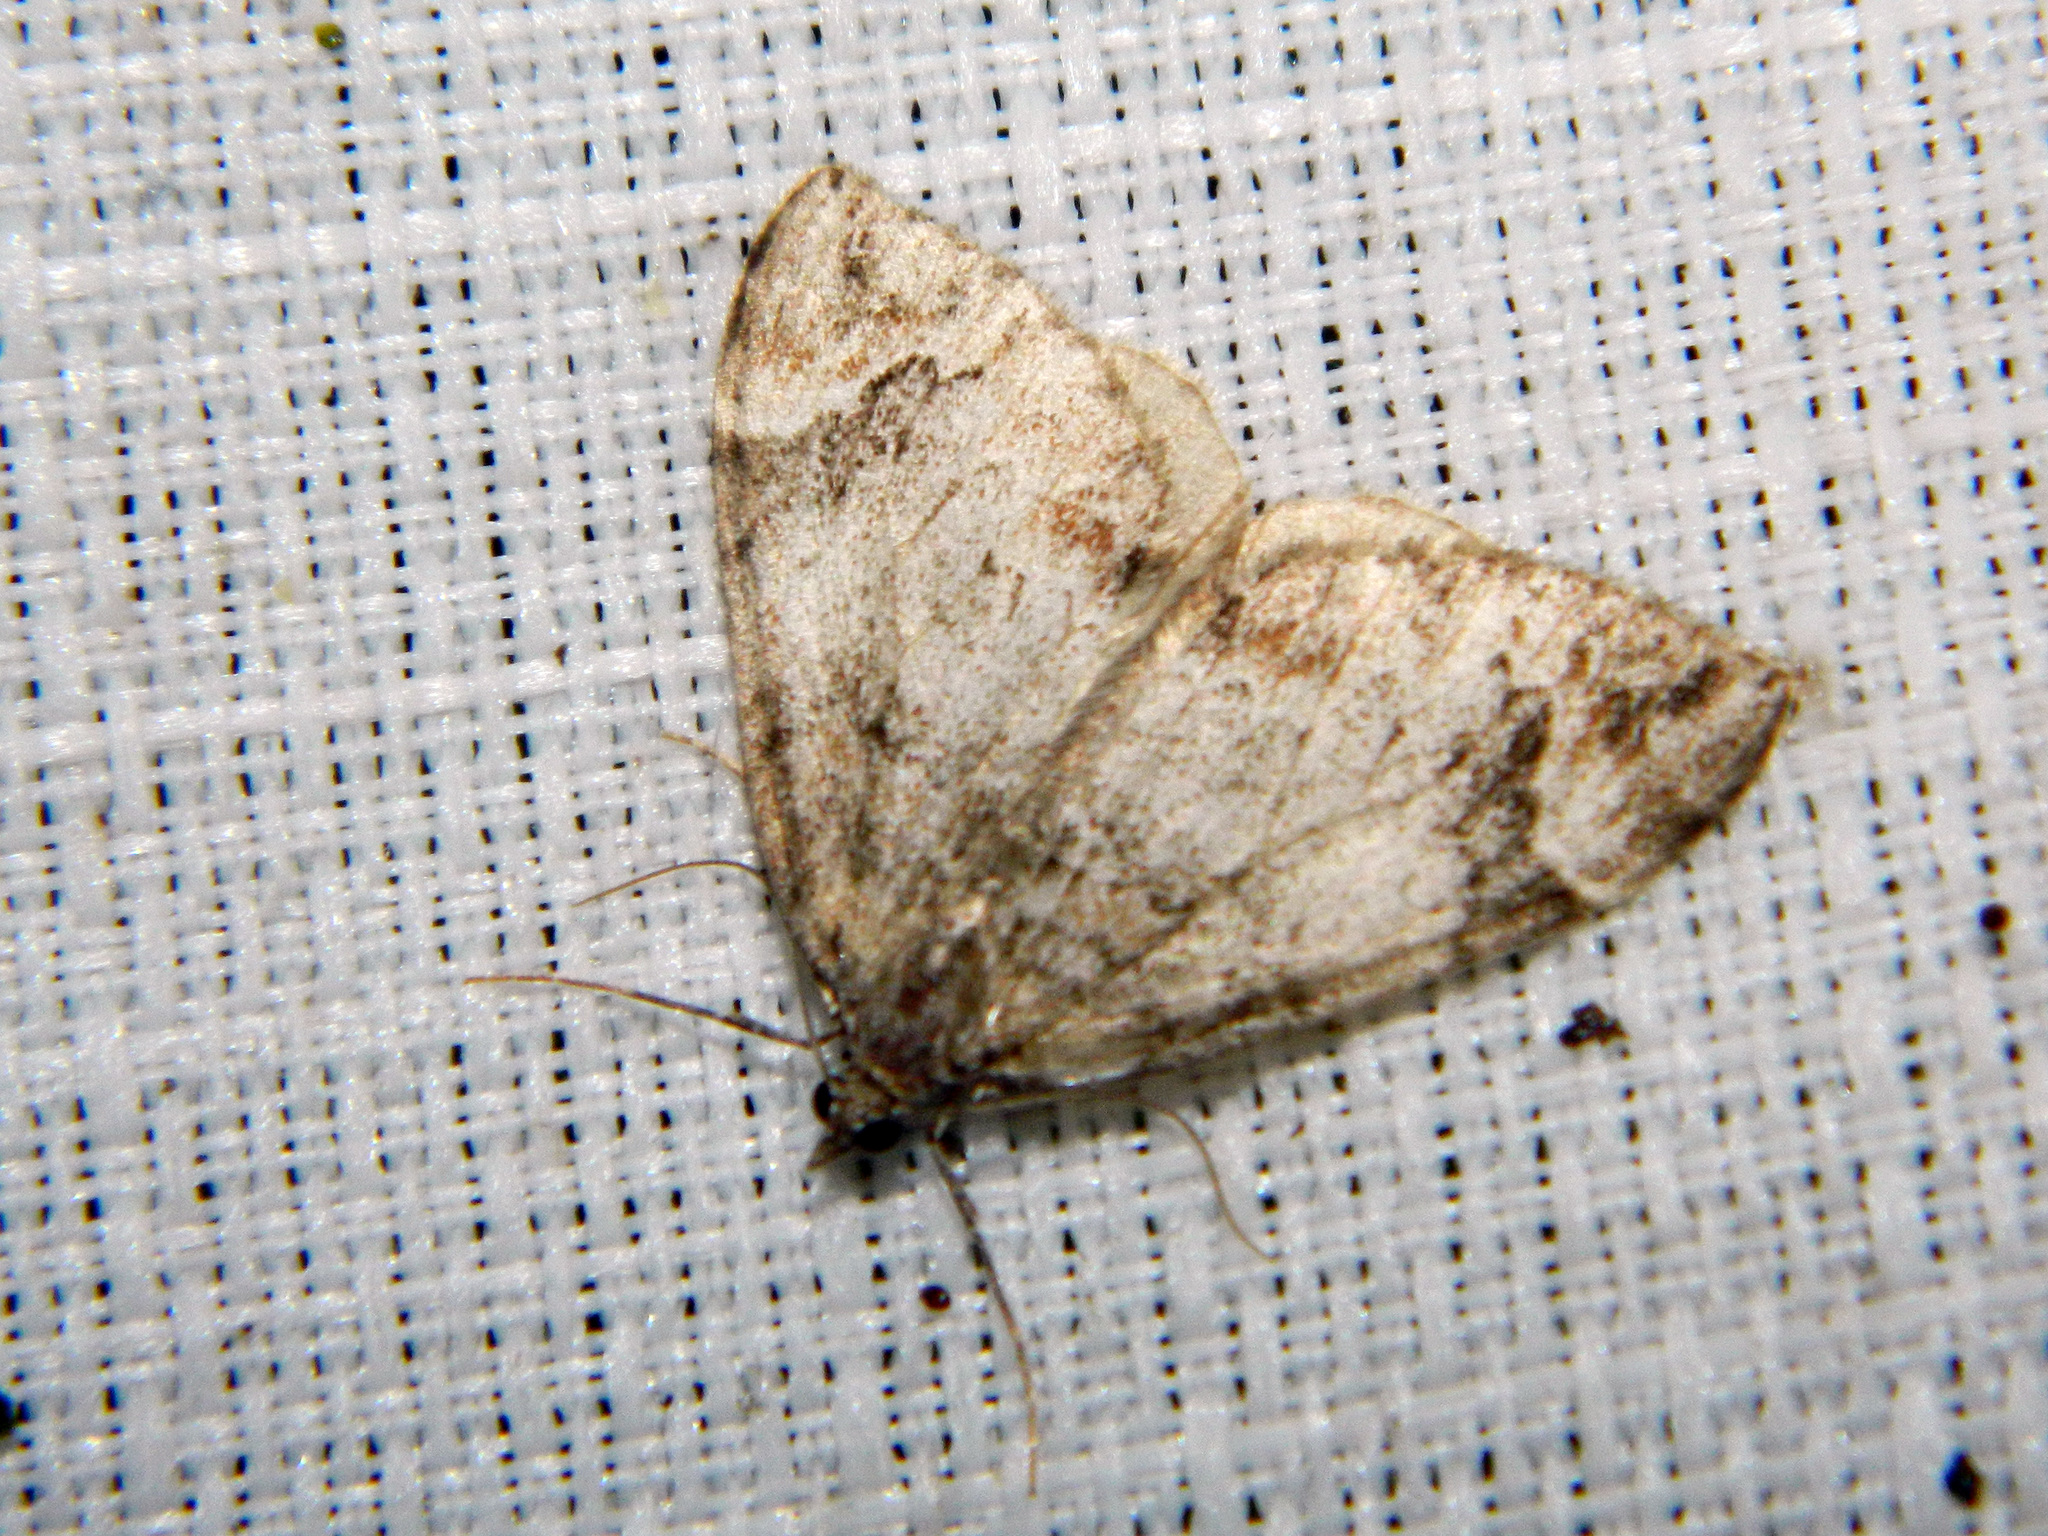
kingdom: Animalia
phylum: Arthropoda
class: Insecta
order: Lepidoptera
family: Geometridae
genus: Dysstroma
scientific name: Dysstroma citrata
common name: Dark marbled carpet
